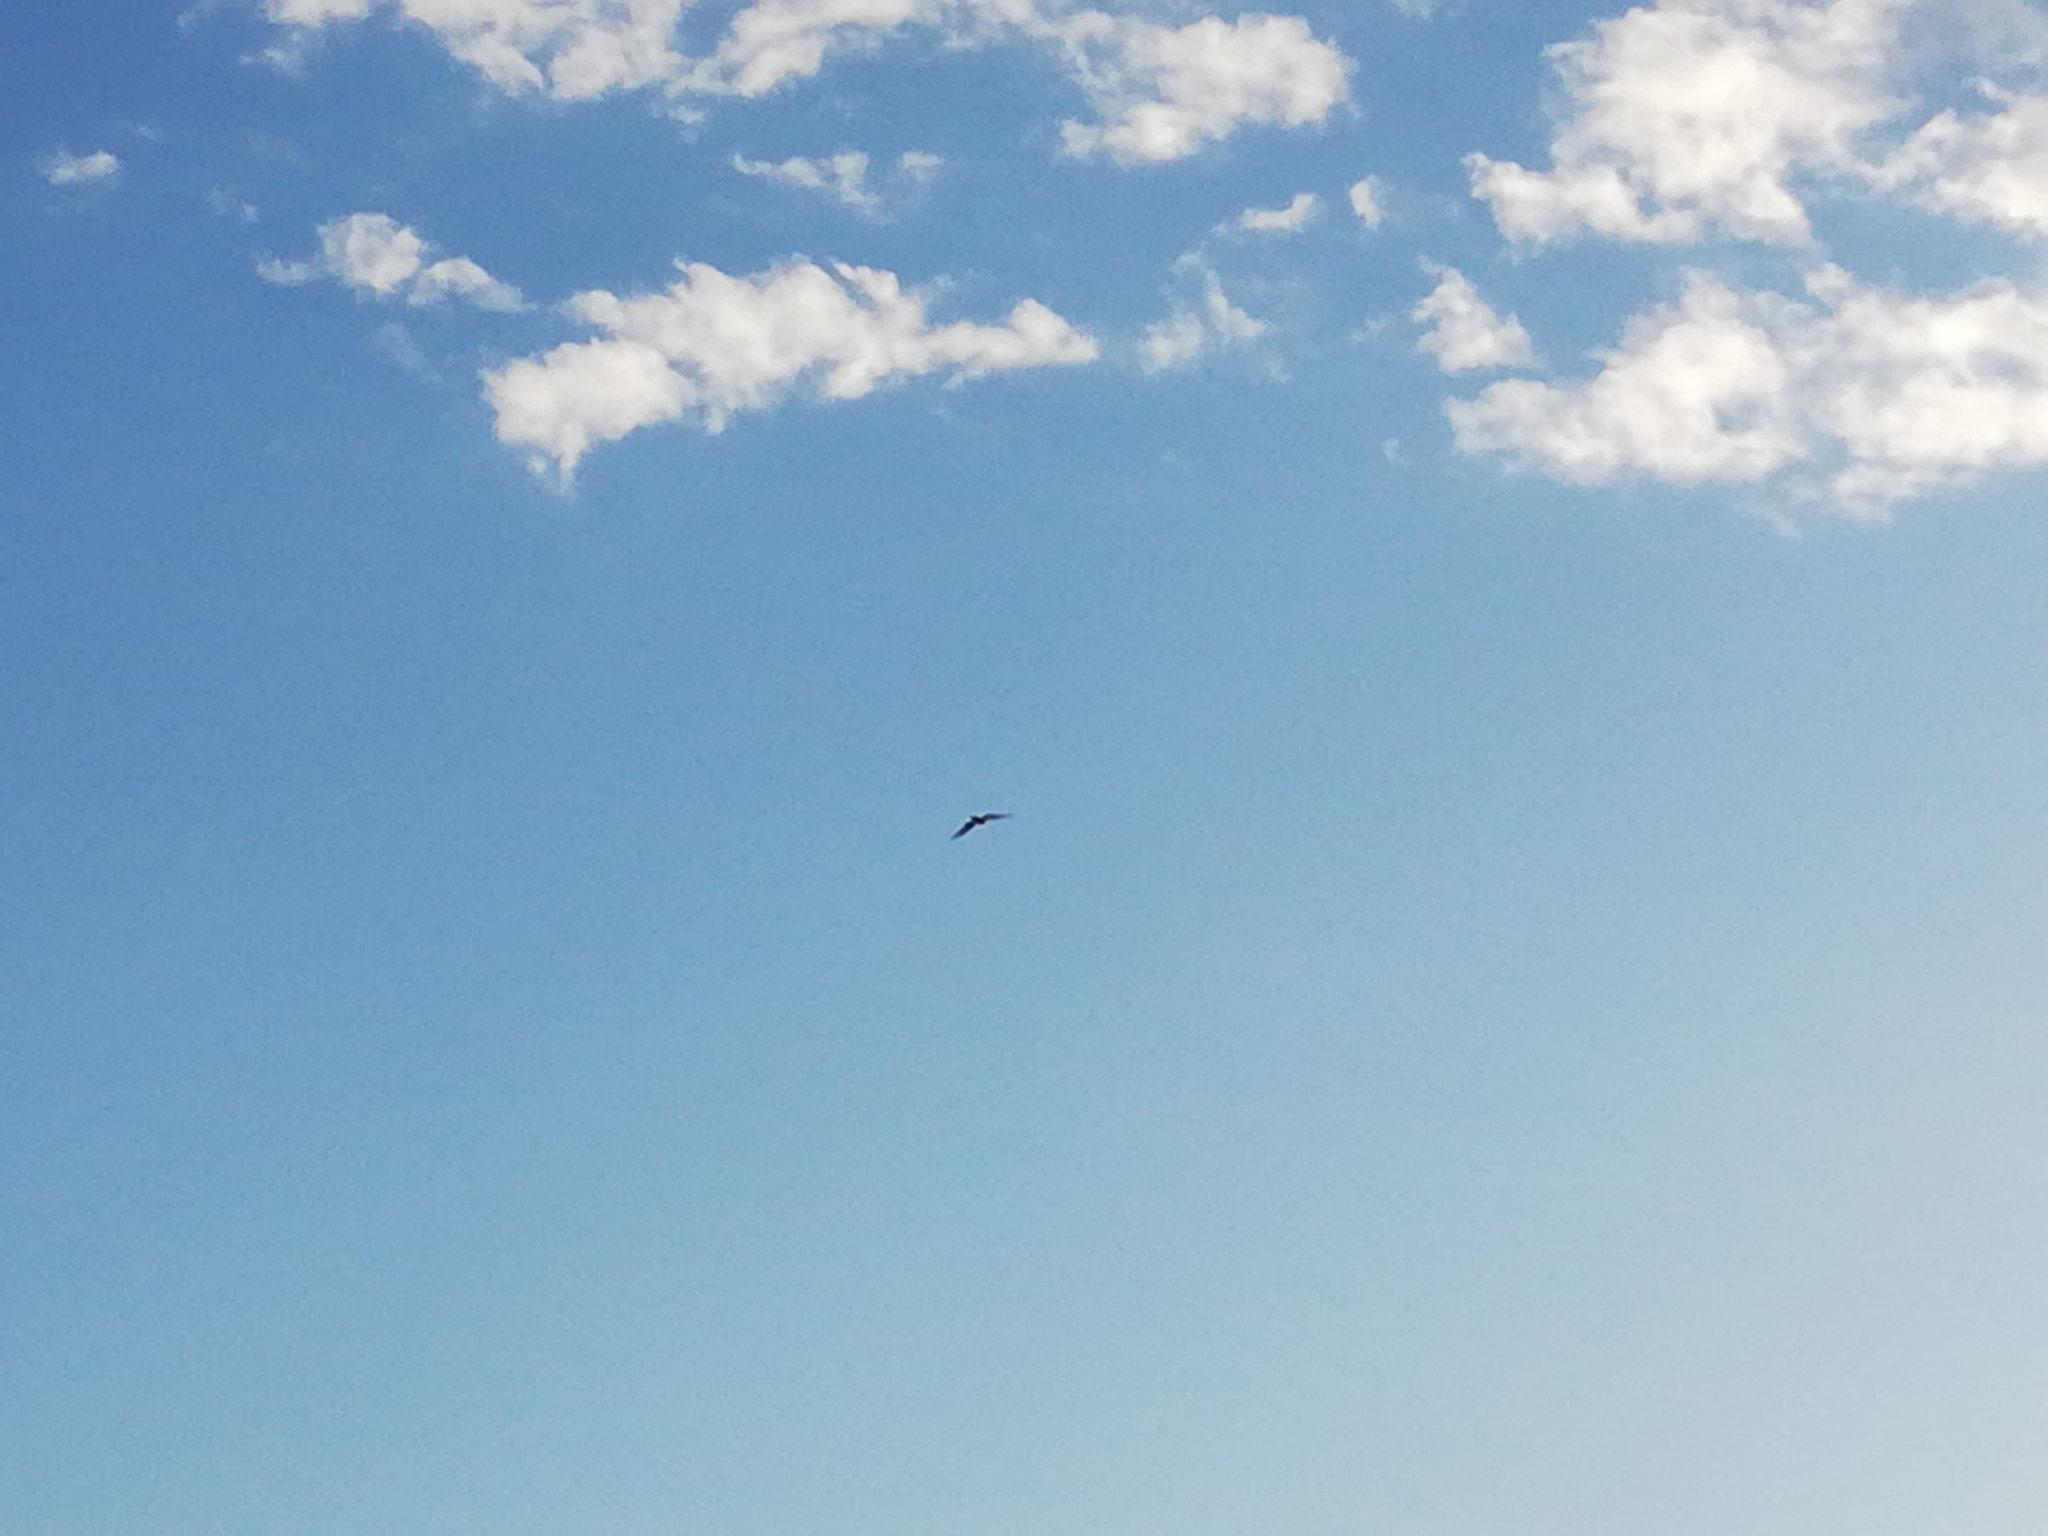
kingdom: Animalia
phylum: Chordata
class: Aves
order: Accipitriformes
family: Accipitridae
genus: Milvus
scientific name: Milvus migrans
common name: Black kite
